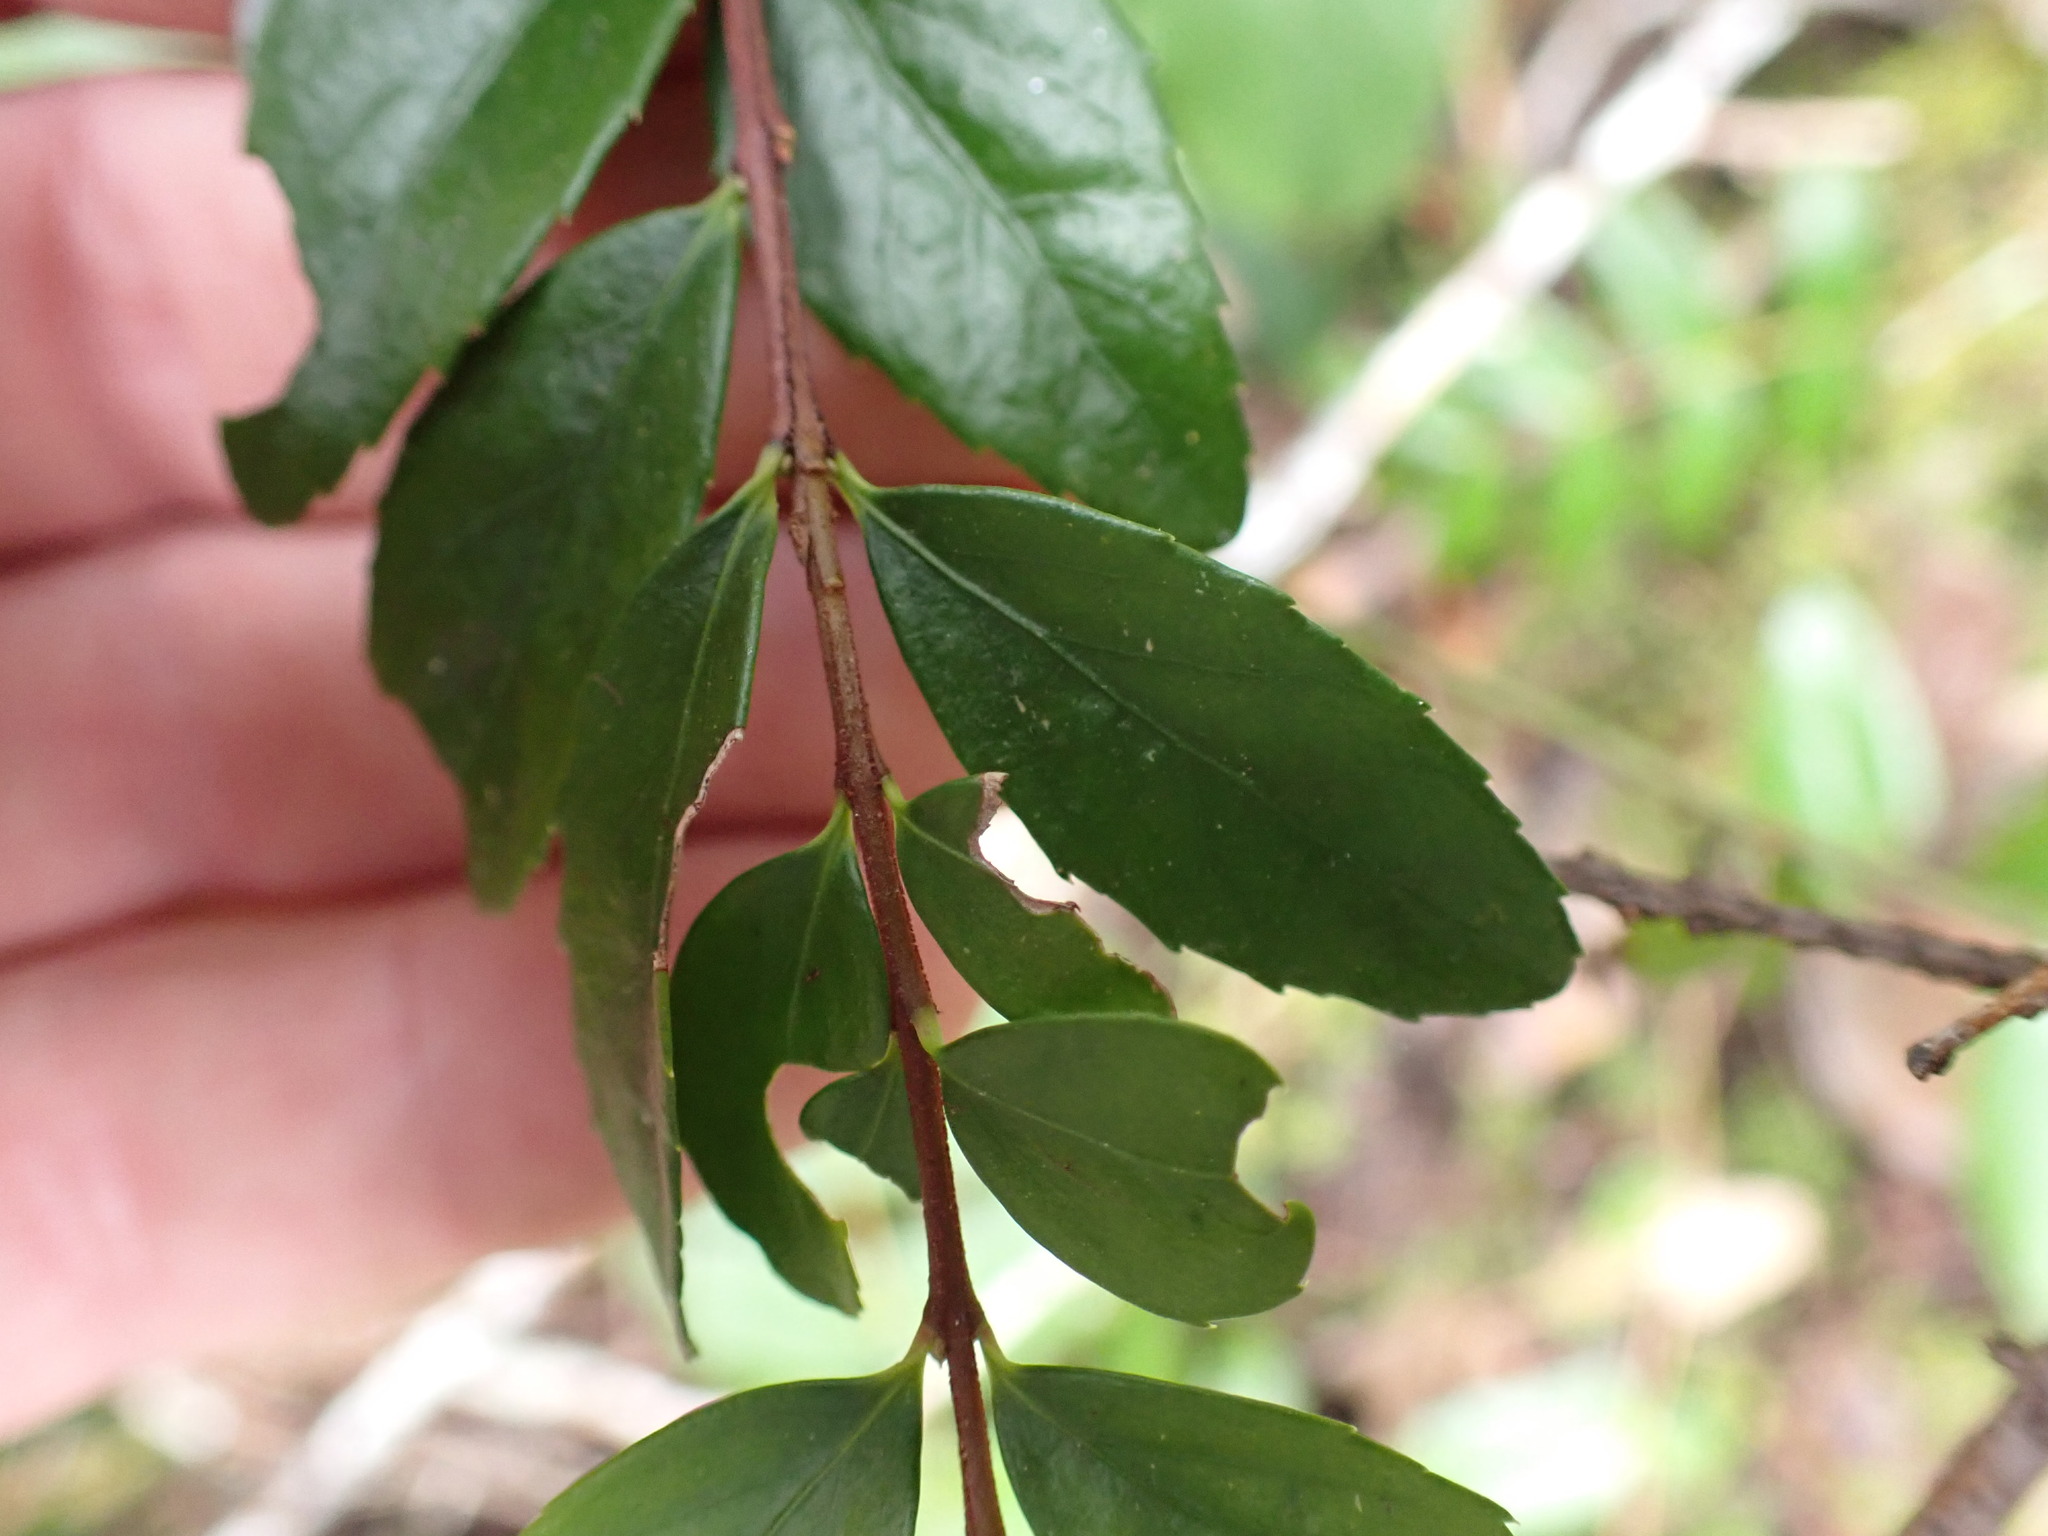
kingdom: Plantae
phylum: Tracheophyta
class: Magnoliopsida
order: Celastrales
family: Celastraceae
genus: Paxistima
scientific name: Paxistima myrsinites
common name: Mountain-lover
